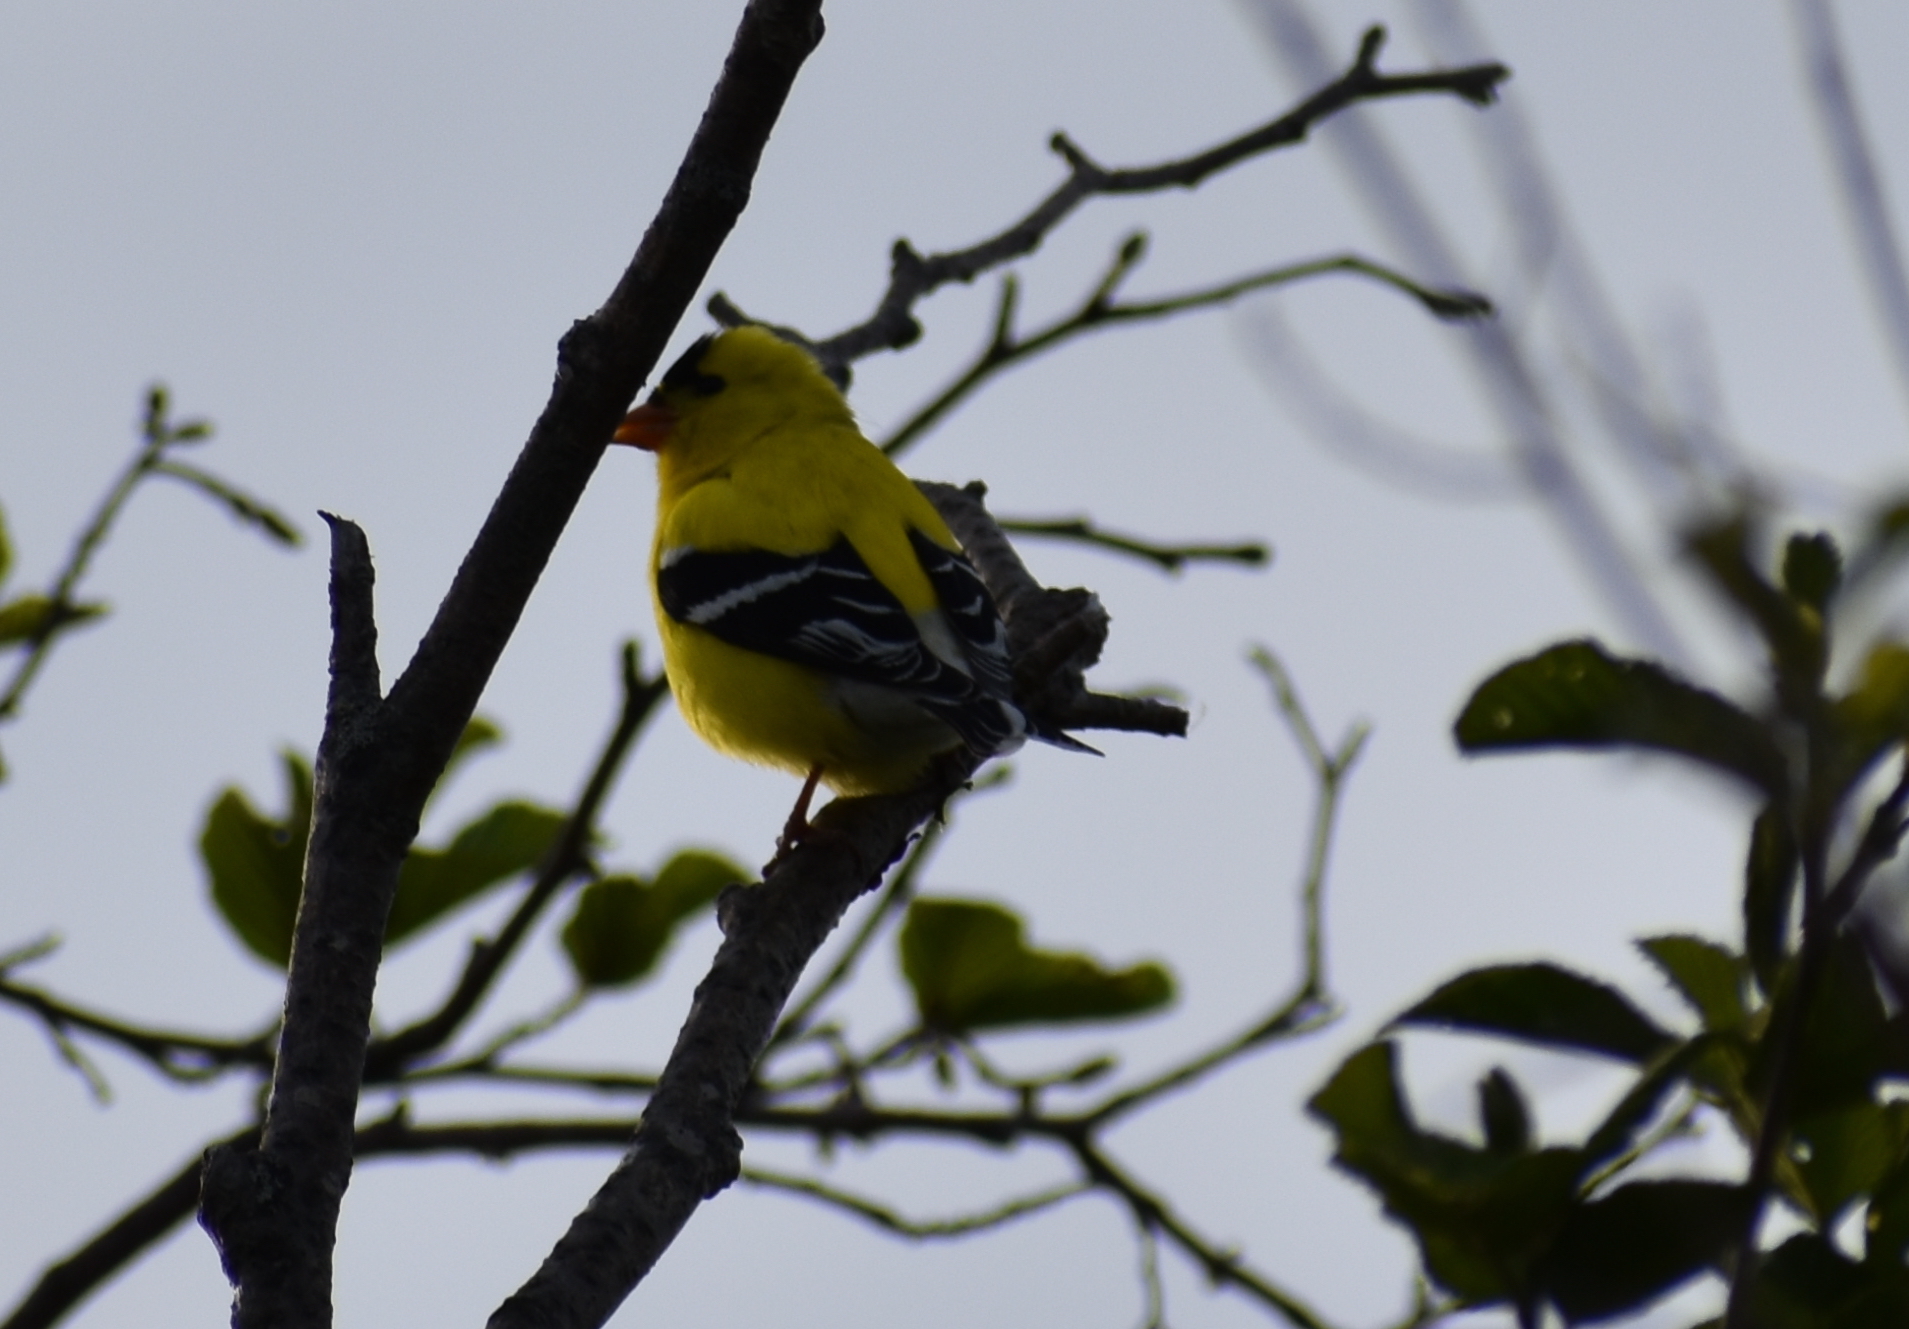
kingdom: Animalia
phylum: Chordata
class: Aves
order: Passeriformes
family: Fringillidae
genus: Spinus
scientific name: Spinus tristis
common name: American goldfinch
